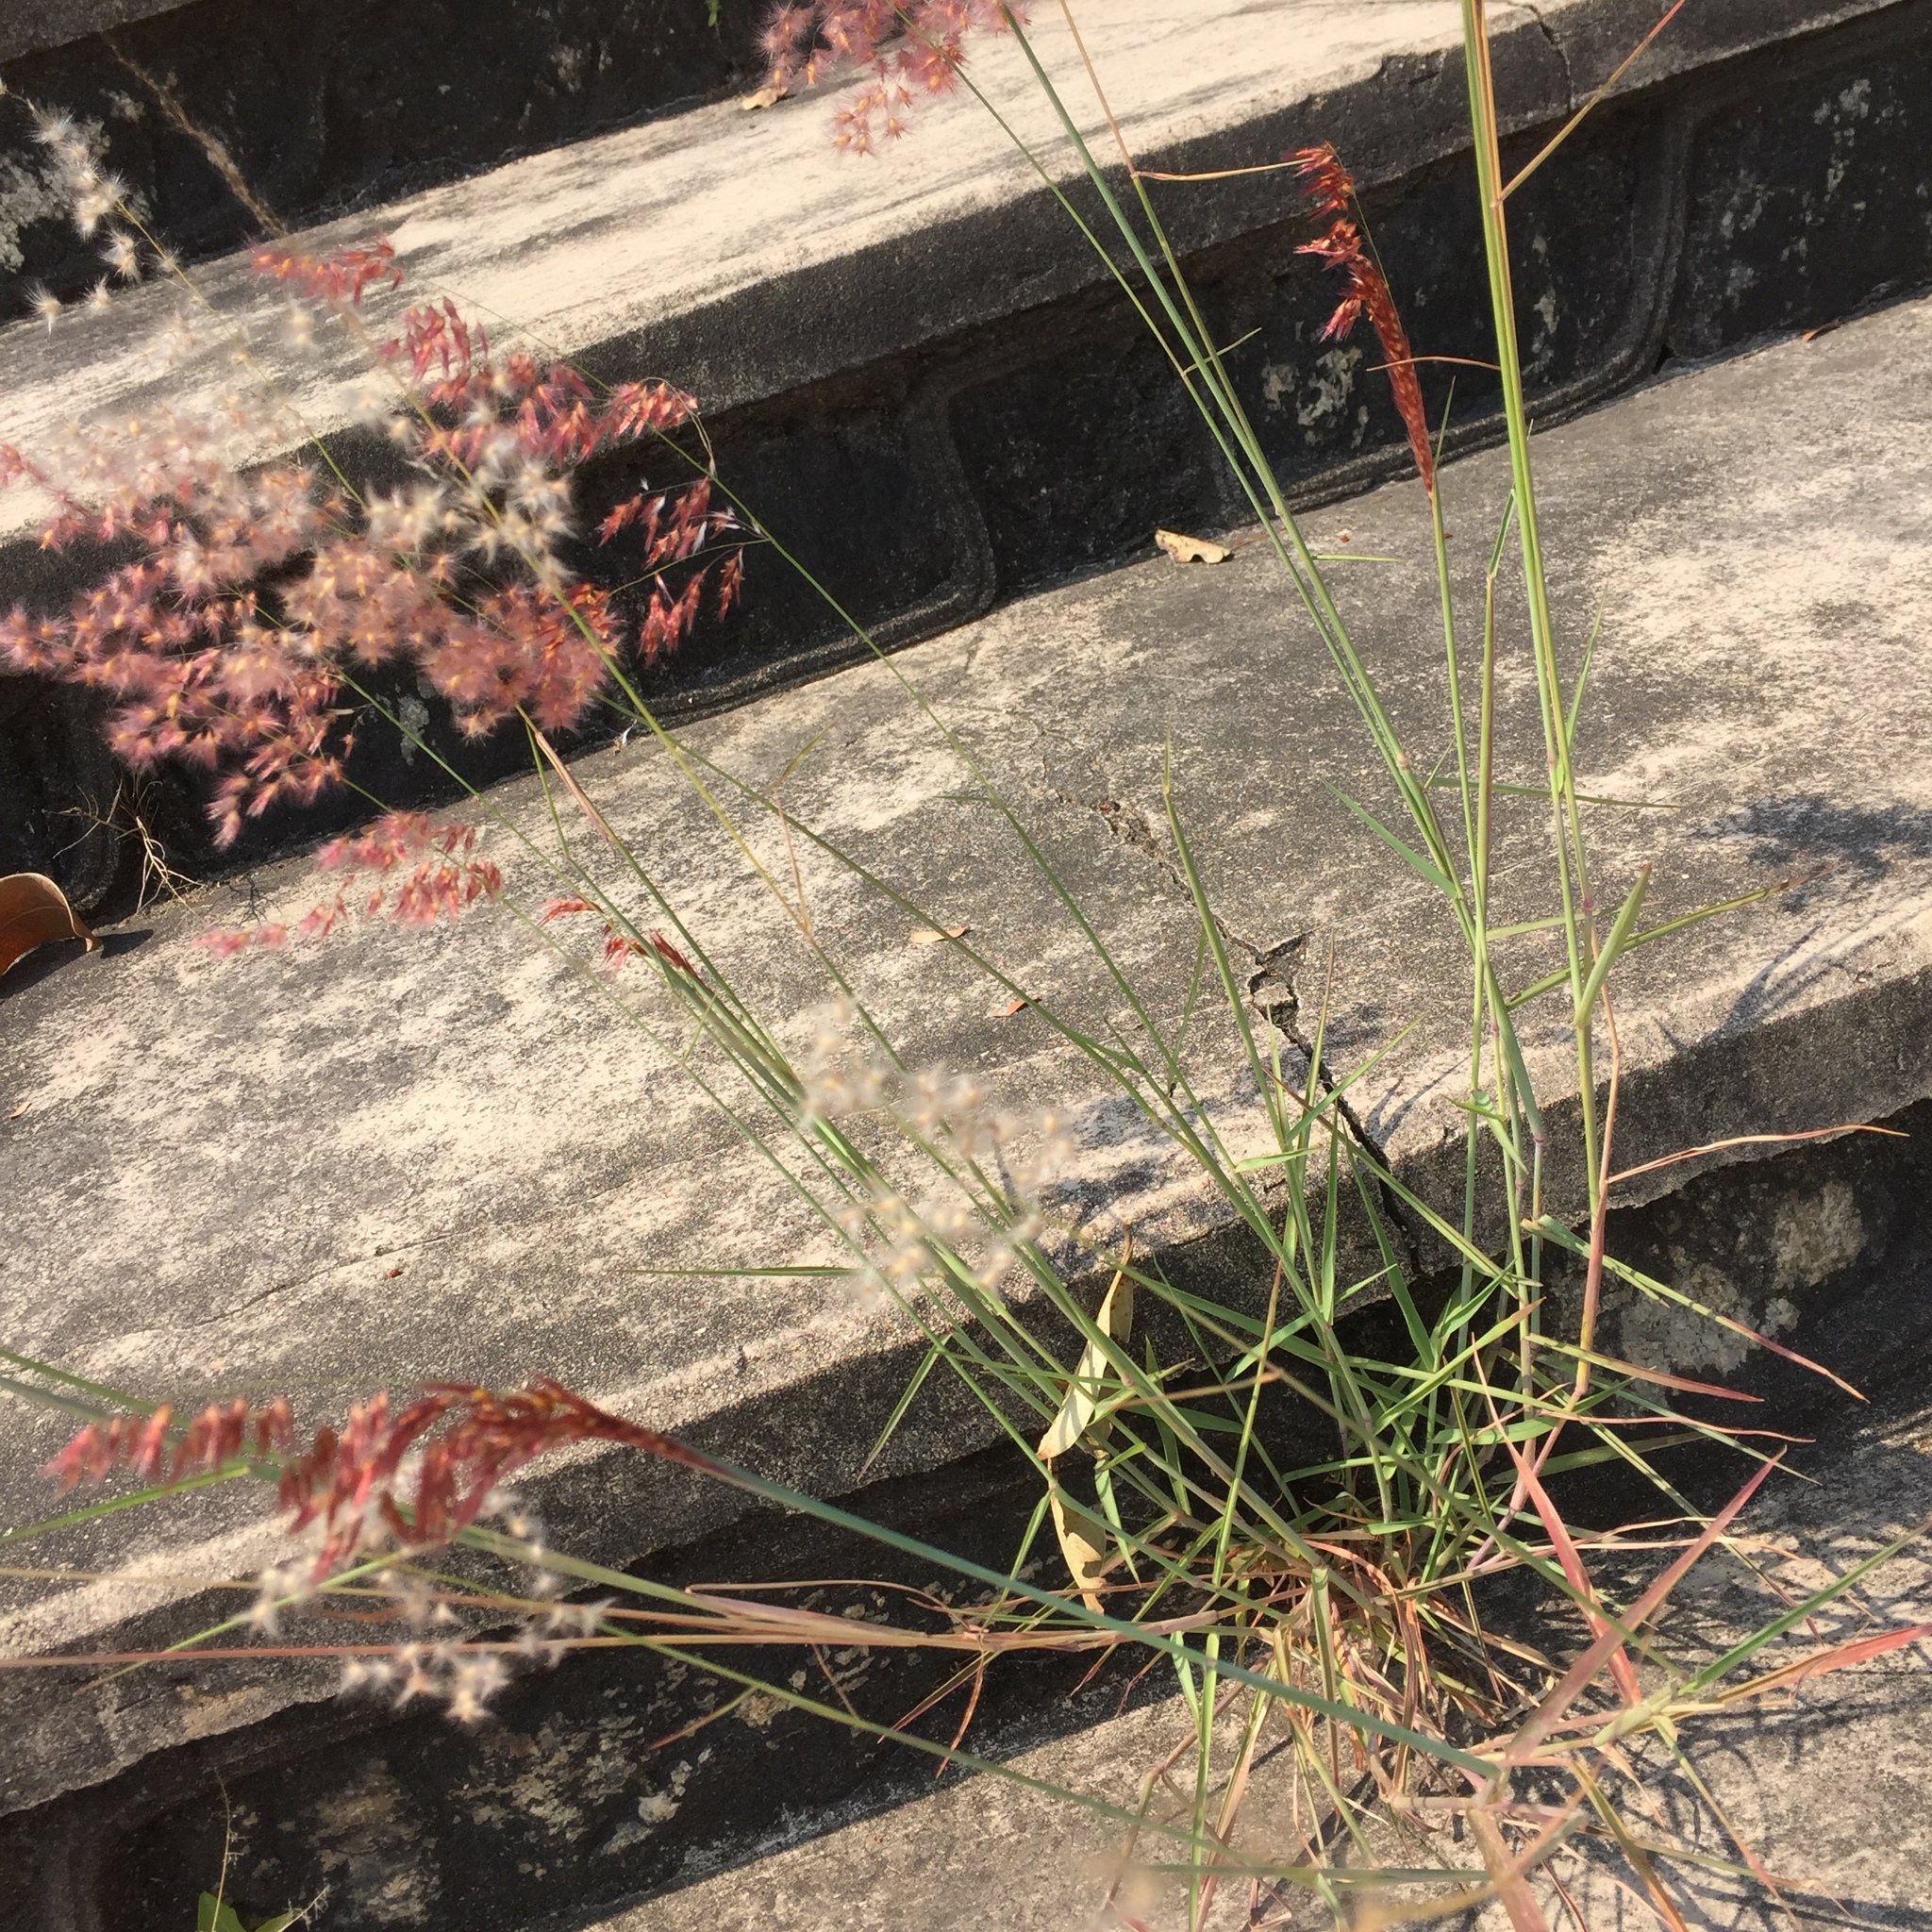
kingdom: Plantae
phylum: Tracheophyta
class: Liliopsida
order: Poales
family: Poaceae
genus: Melinis
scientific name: Melinis repens
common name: Rose natal grass
